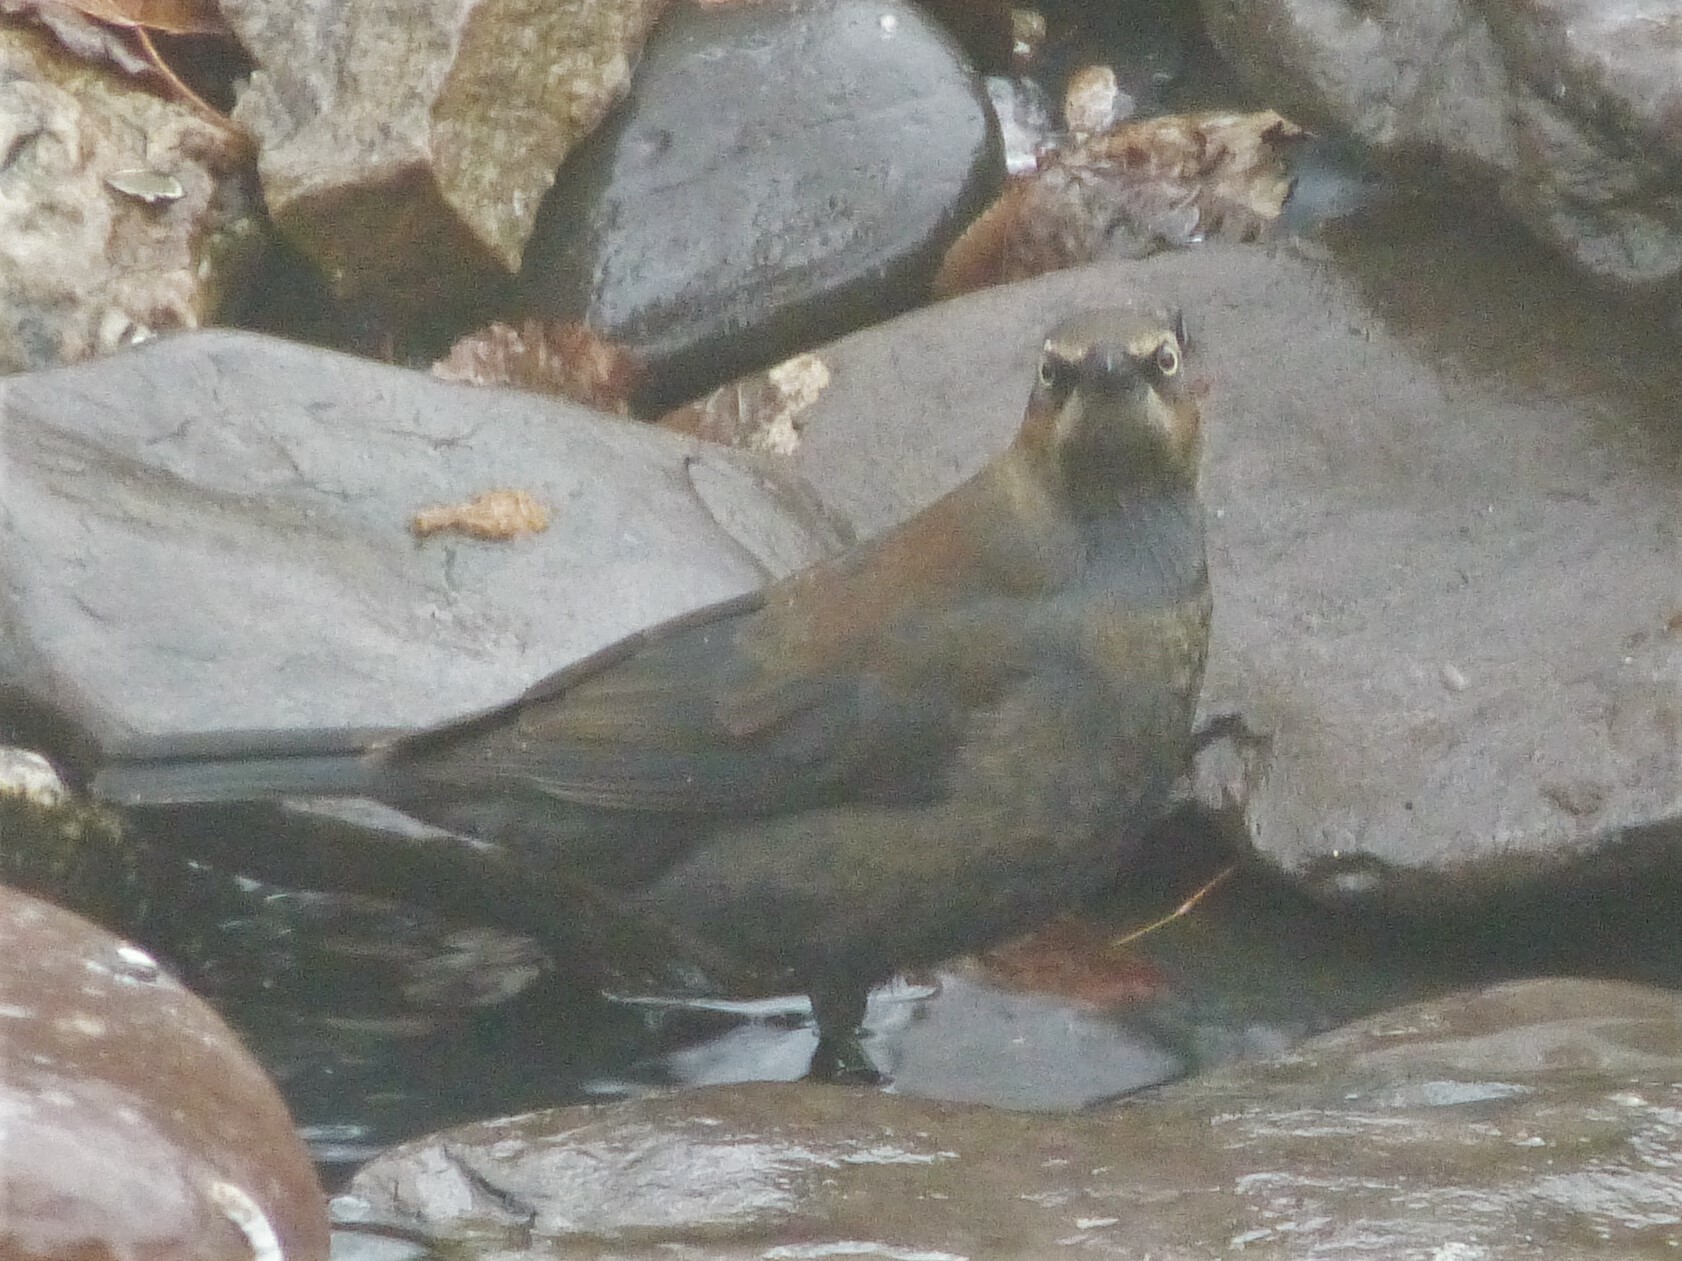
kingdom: Animalia
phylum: Chordata
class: Aves
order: Passeriformes
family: Icteridae
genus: Euphagus
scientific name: Euphagus carolinus
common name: Rusty blackbird
